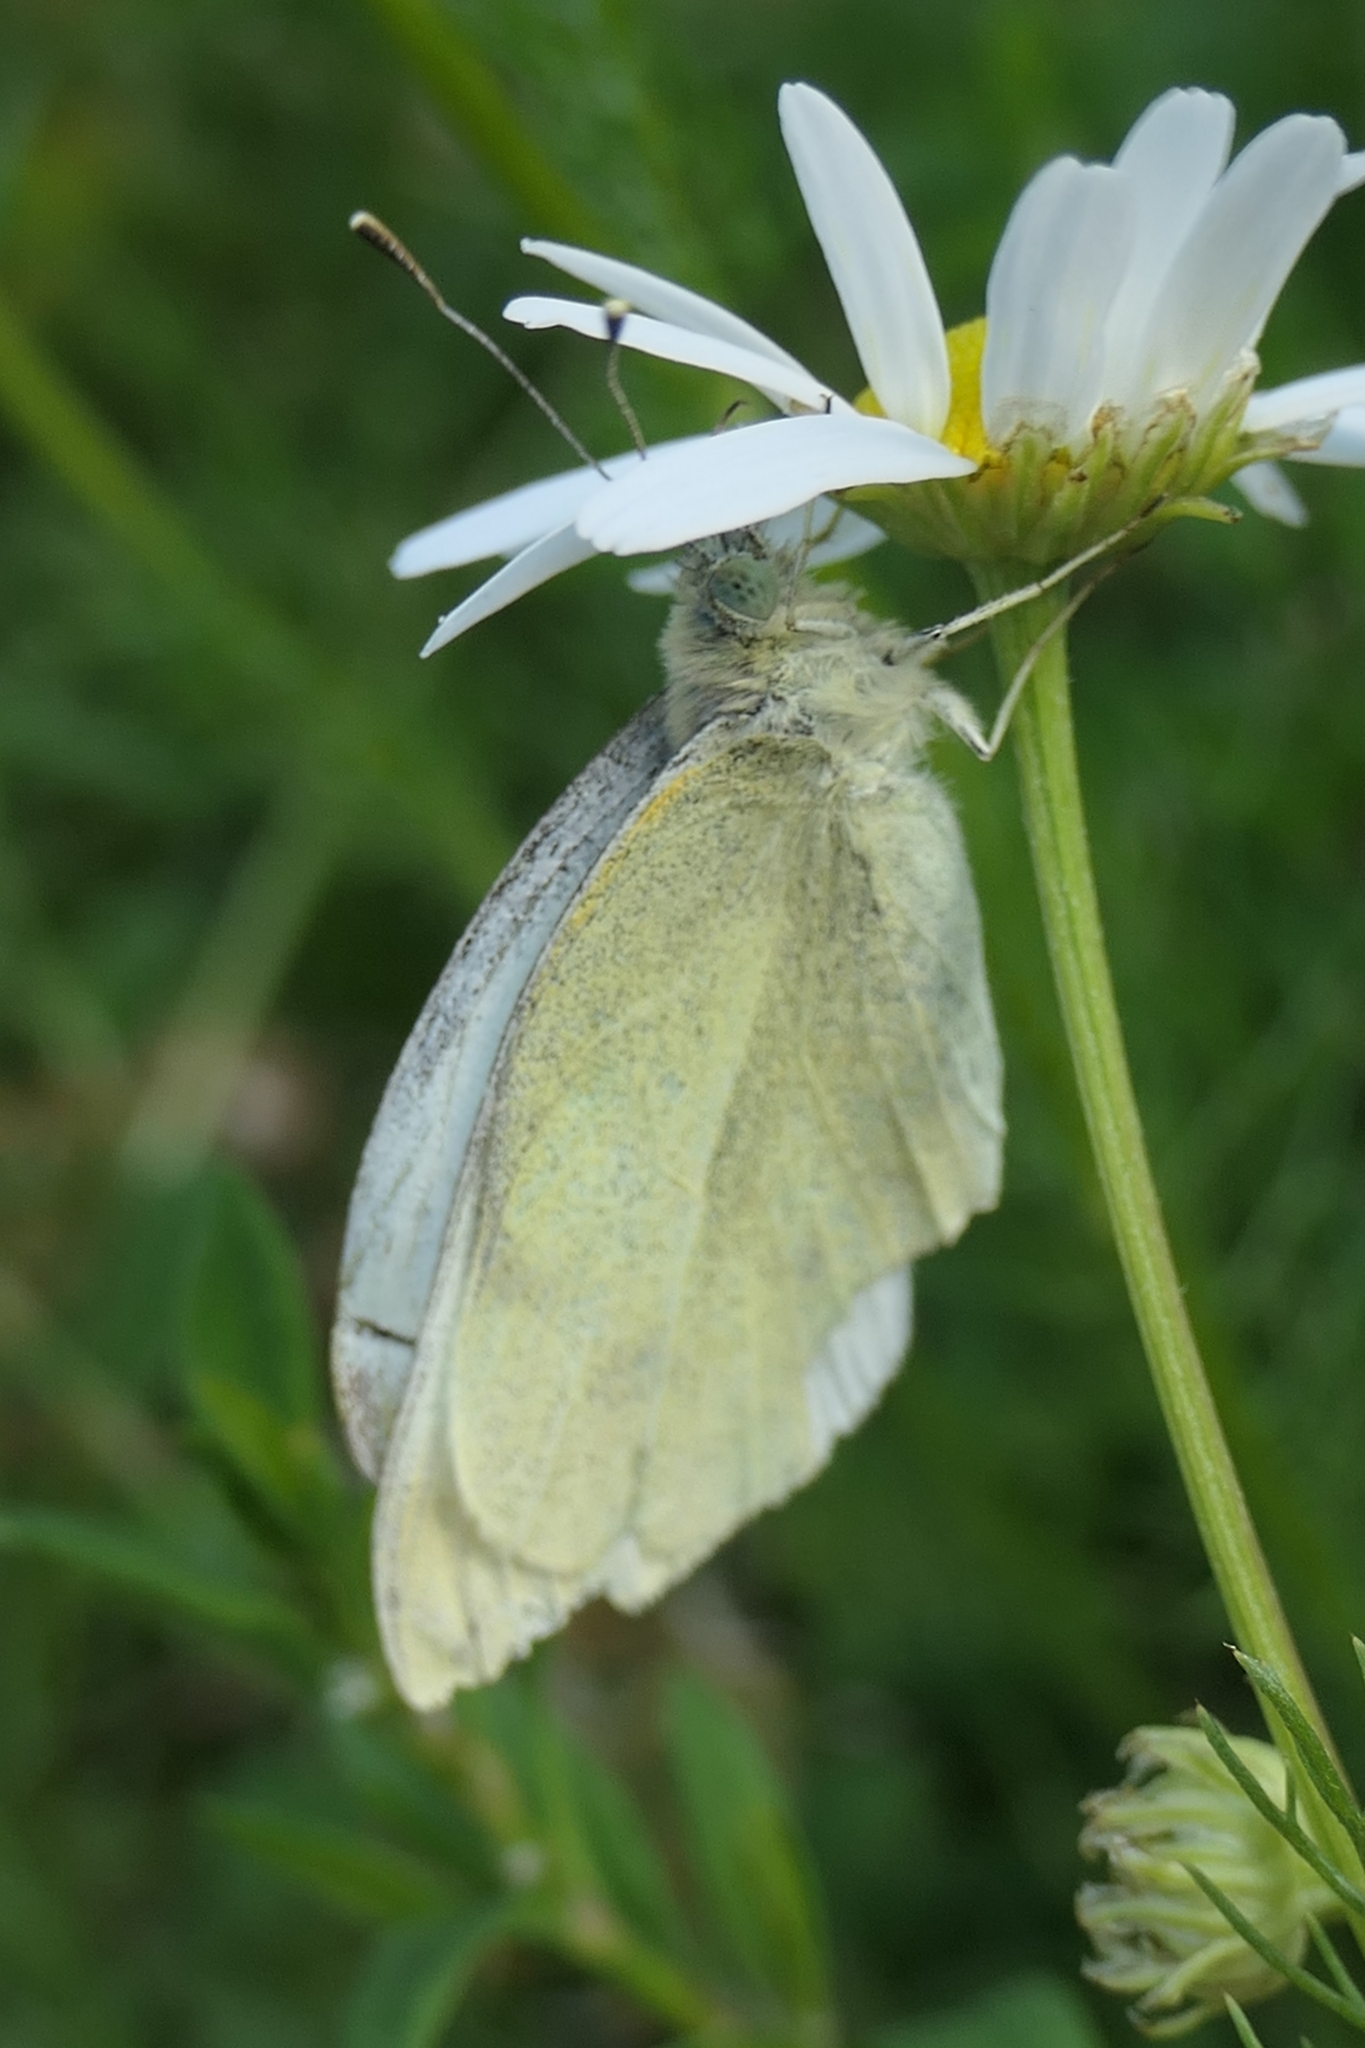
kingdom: Animalia
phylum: Arthropoda
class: Insecta
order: Lepidoptera
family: Pieridae
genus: Pieris
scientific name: Pieris rapae
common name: Small white
